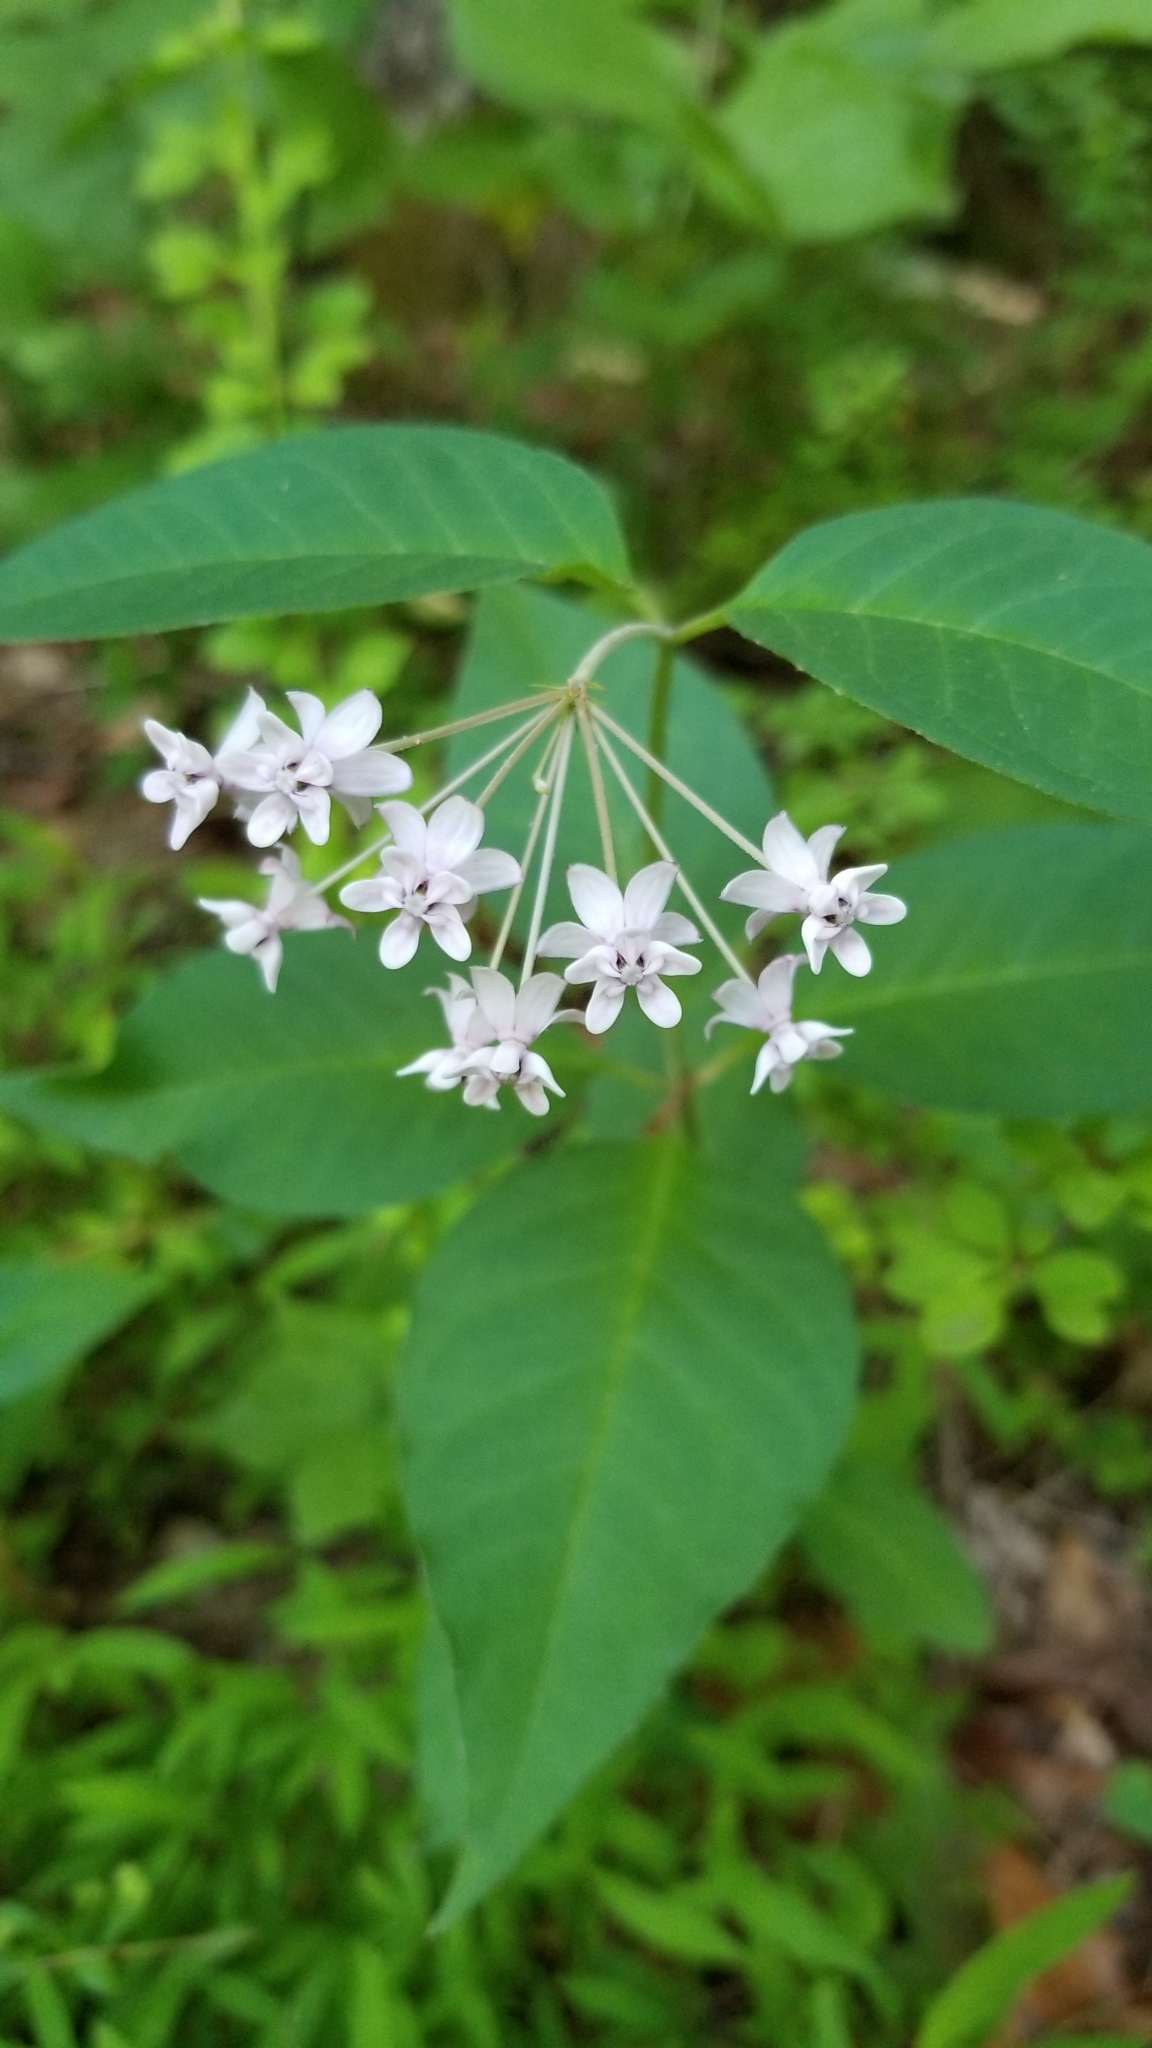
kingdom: Plantae
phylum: Tracheophyta
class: Magnoliopsida
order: Gentianales
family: Apocynaceae
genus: Asclepias
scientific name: Asclepias quadrifolia
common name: Whorled milkweed
